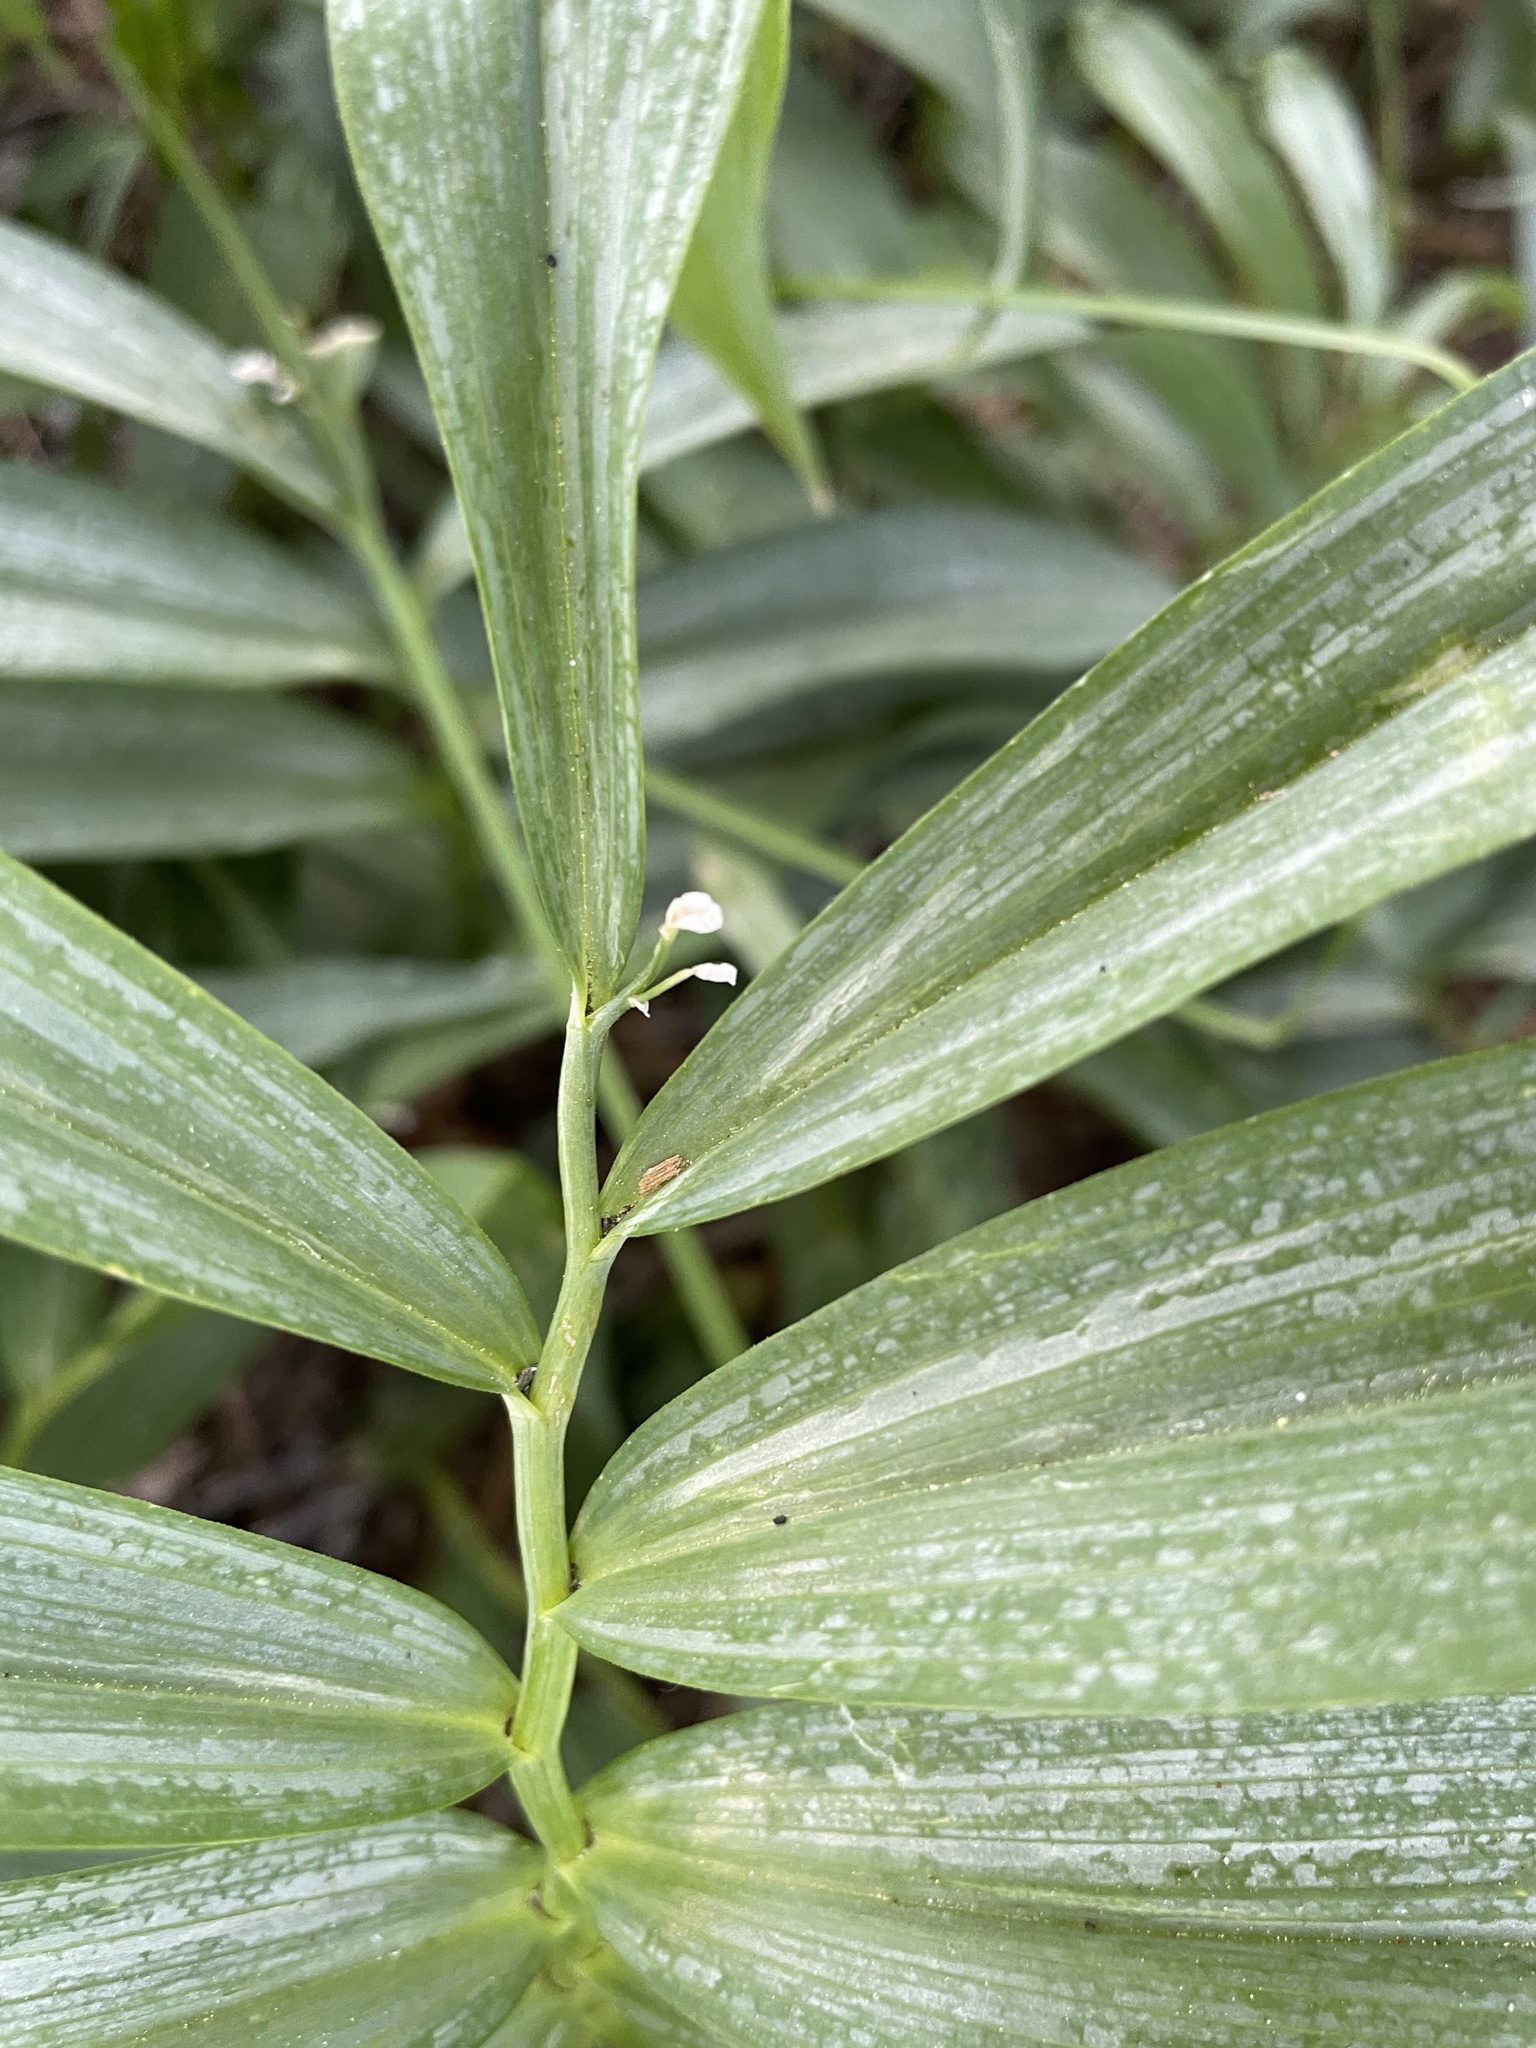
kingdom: Plantae
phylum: Tracheophyta
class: Liliopsida
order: Asparagales
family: Asparagaceae
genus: Maianthemum
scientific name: Maianthemum stellatum
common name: Little false solomon's seal
